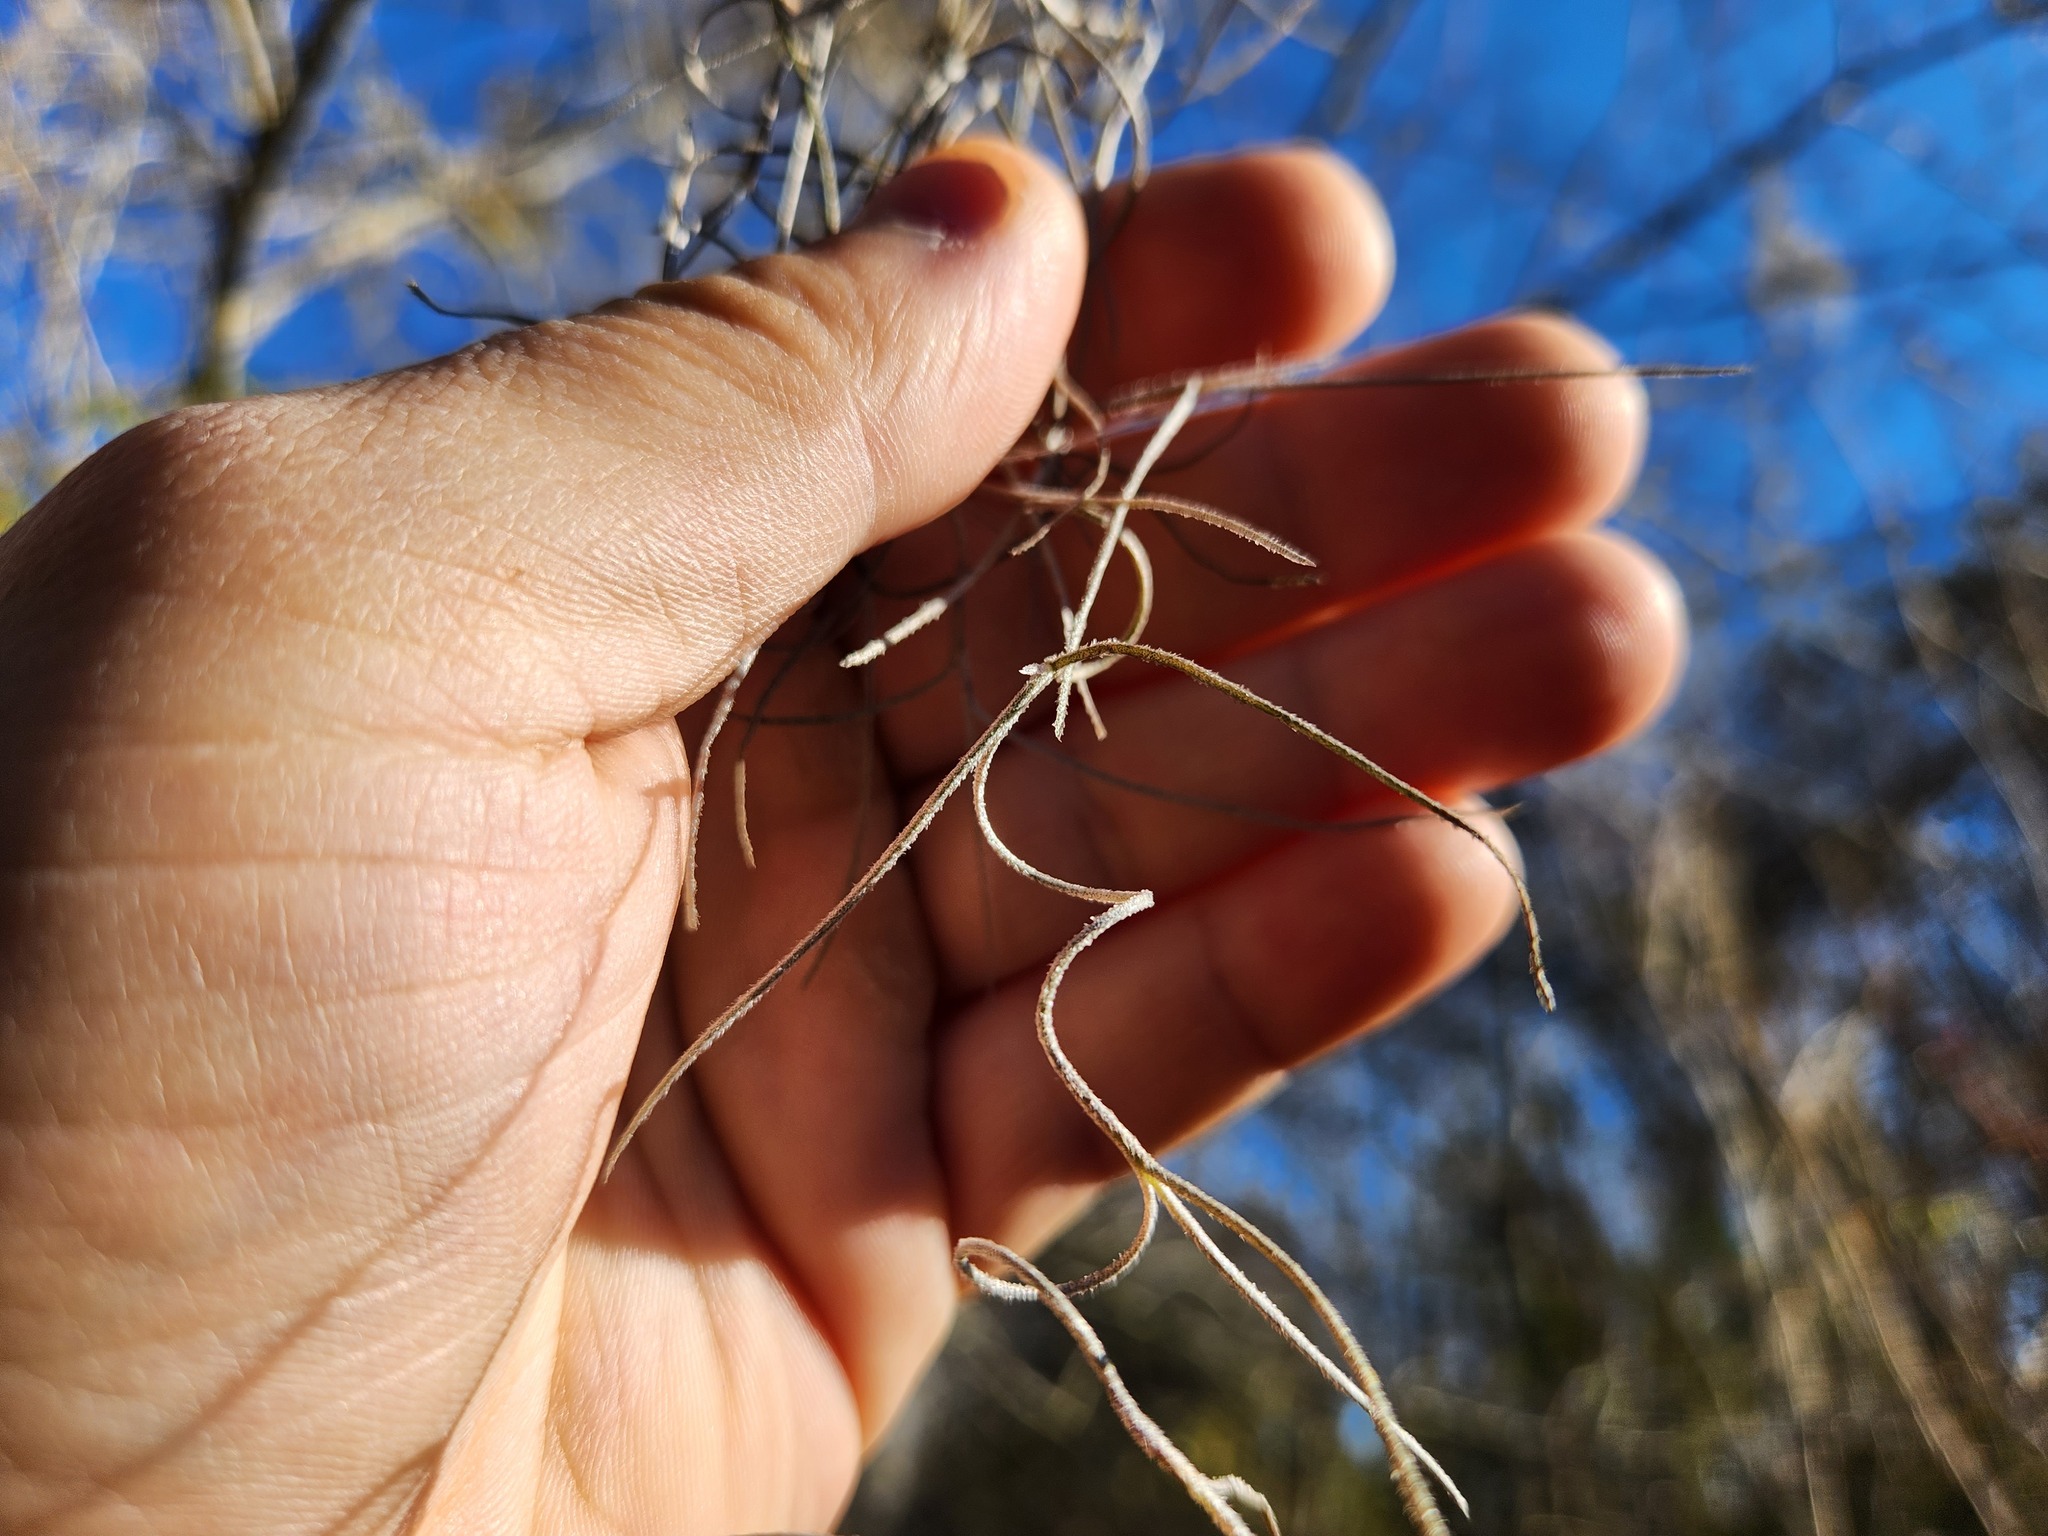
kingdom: Plantae
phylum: Tracheophyta
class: Liliopsida
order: Poales
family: Bromeliaceae
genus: Tillandsia
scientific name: Tillandsia usneoides
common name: Spanish moss
